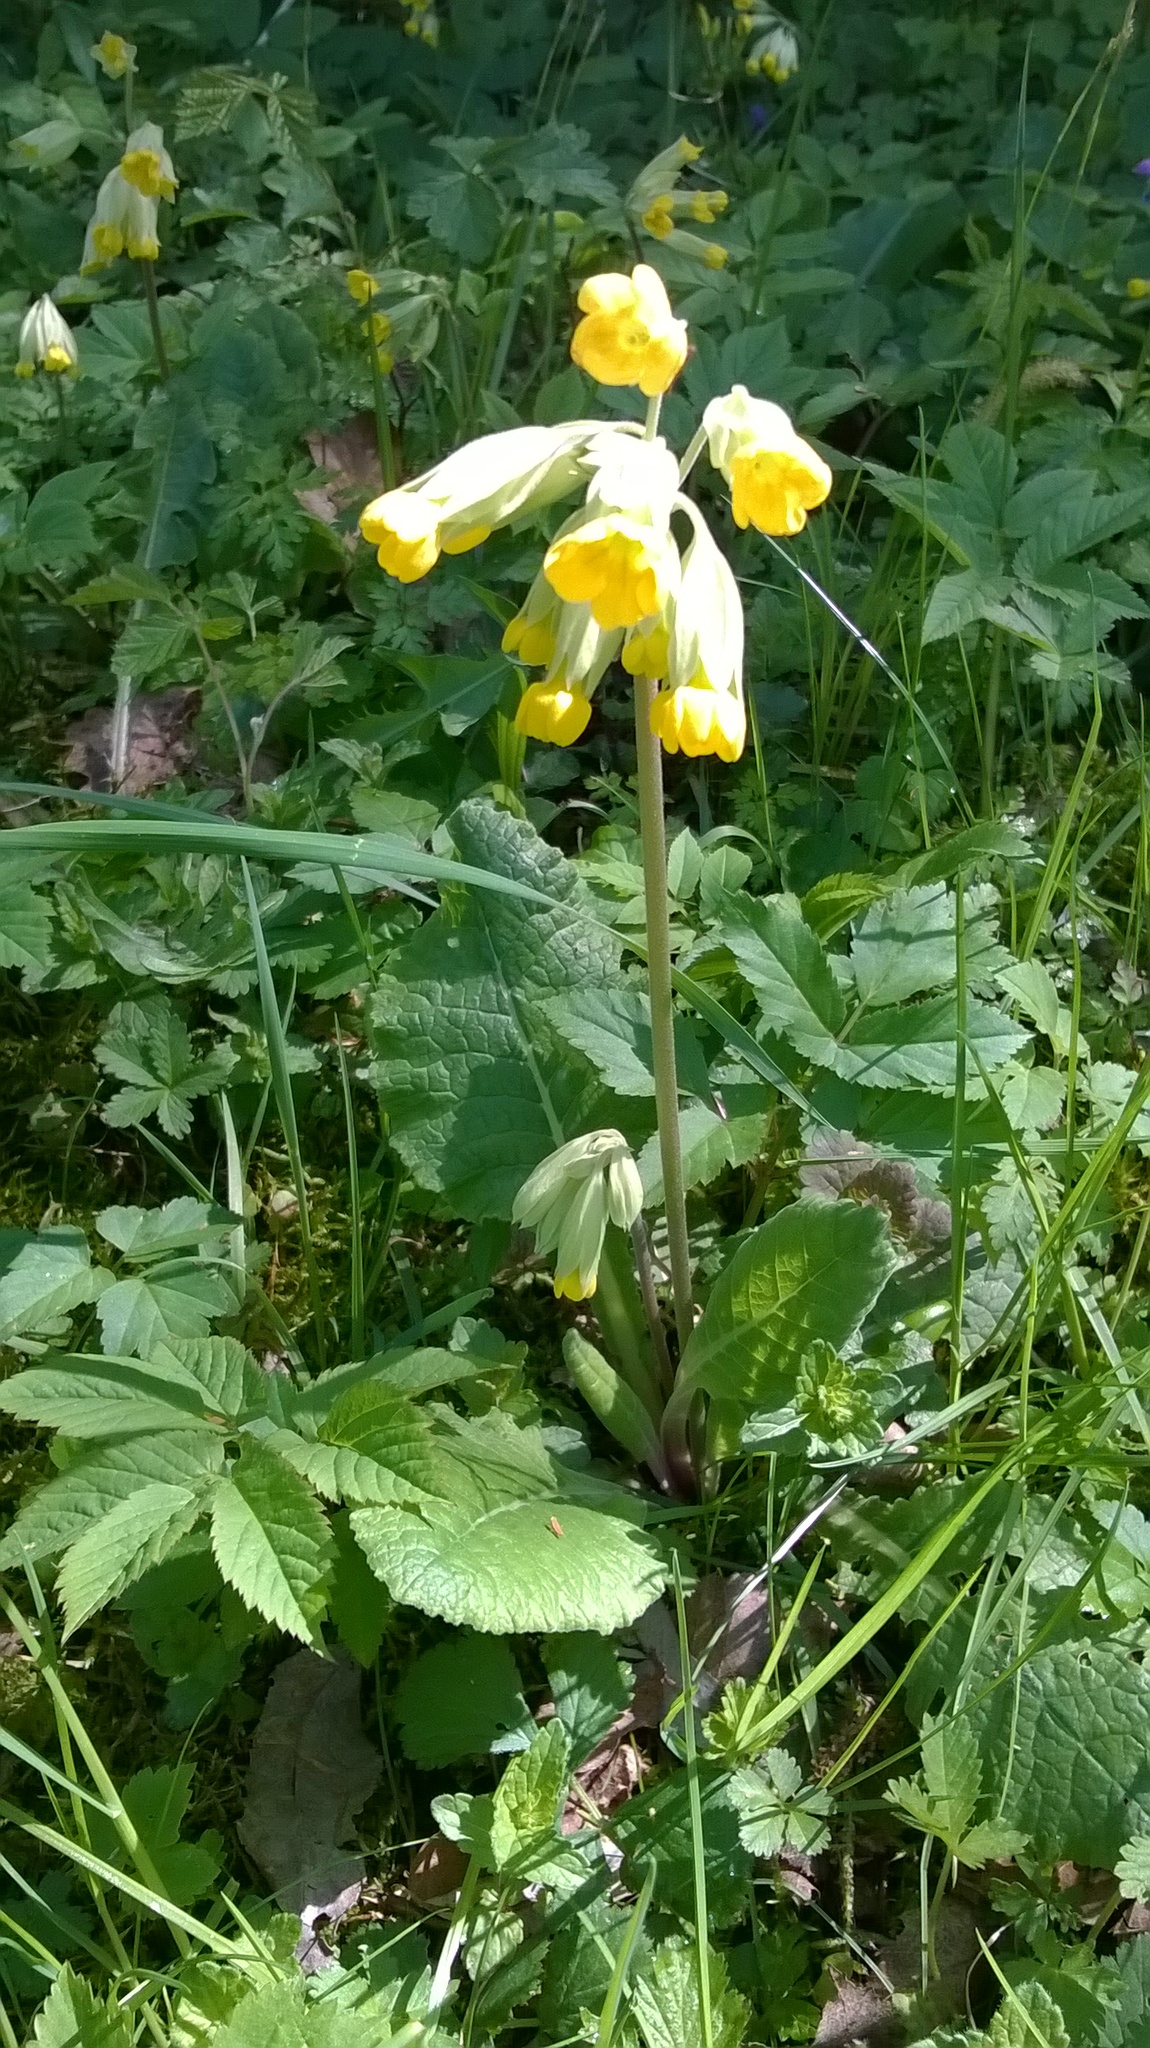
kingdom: Plantae
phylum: Tracheophyta
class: Magnoliopsida
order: Ericales
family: Primulaceae
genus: Primula
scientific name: Primula veris
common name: Cowslip
